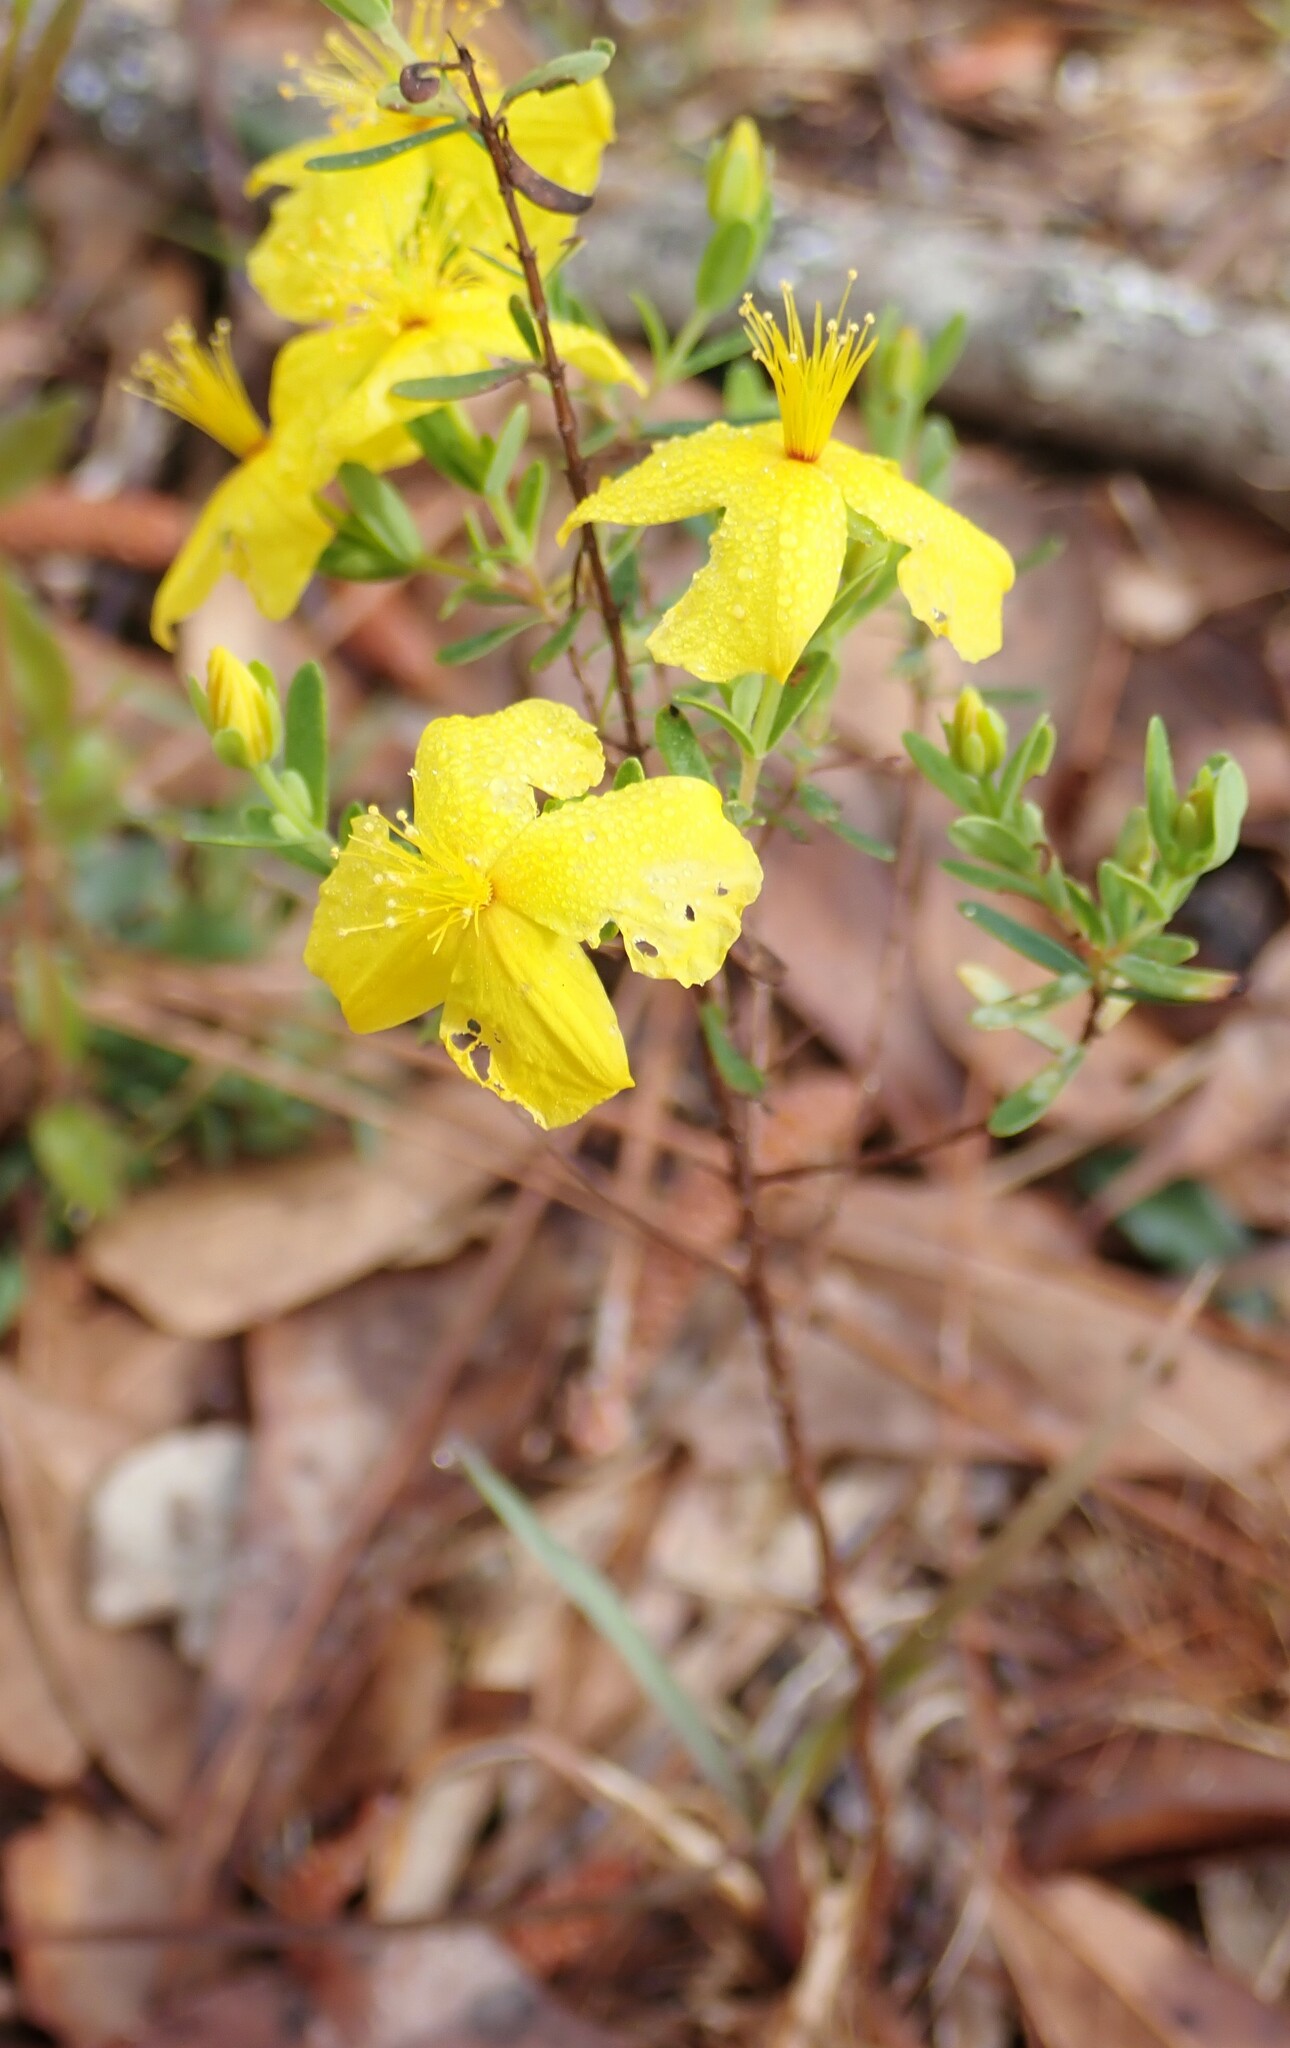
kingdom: Plantae
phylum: Tracheophyta
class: Magnoliopsida
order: Malpighiales
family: Hypericaceae
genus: Hypericum
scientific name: Hypericum microsepalum
